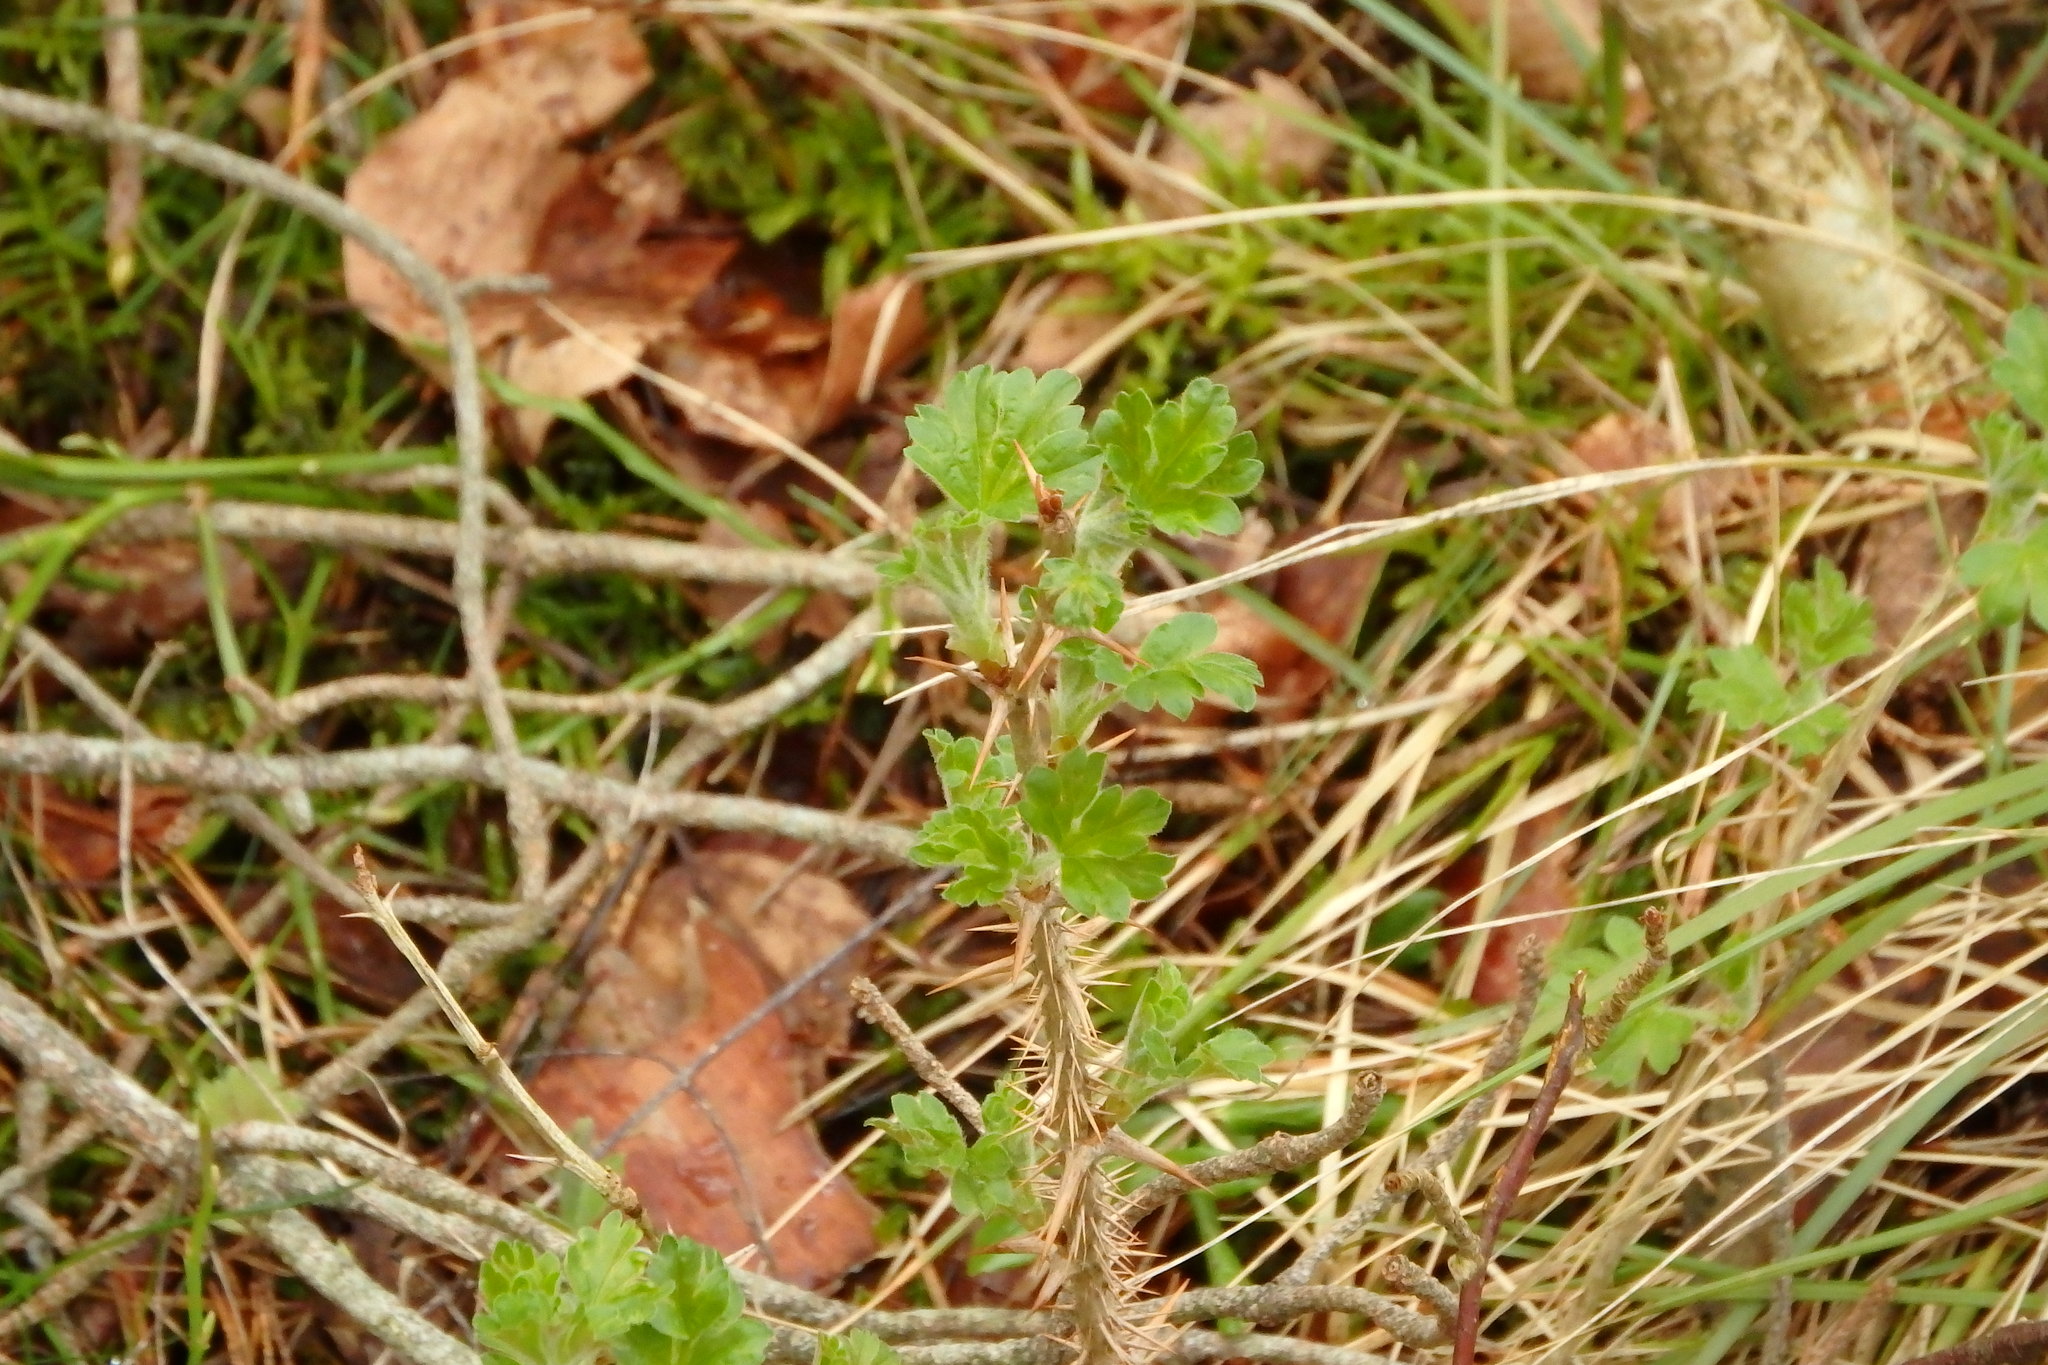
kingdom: Plantae
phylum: Tracheophyta
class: Magnoliopsida
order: Saxifragales
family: Grossulariaceae
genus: Ribes
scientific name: Ribes uva-crispa
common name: Gooseberry
